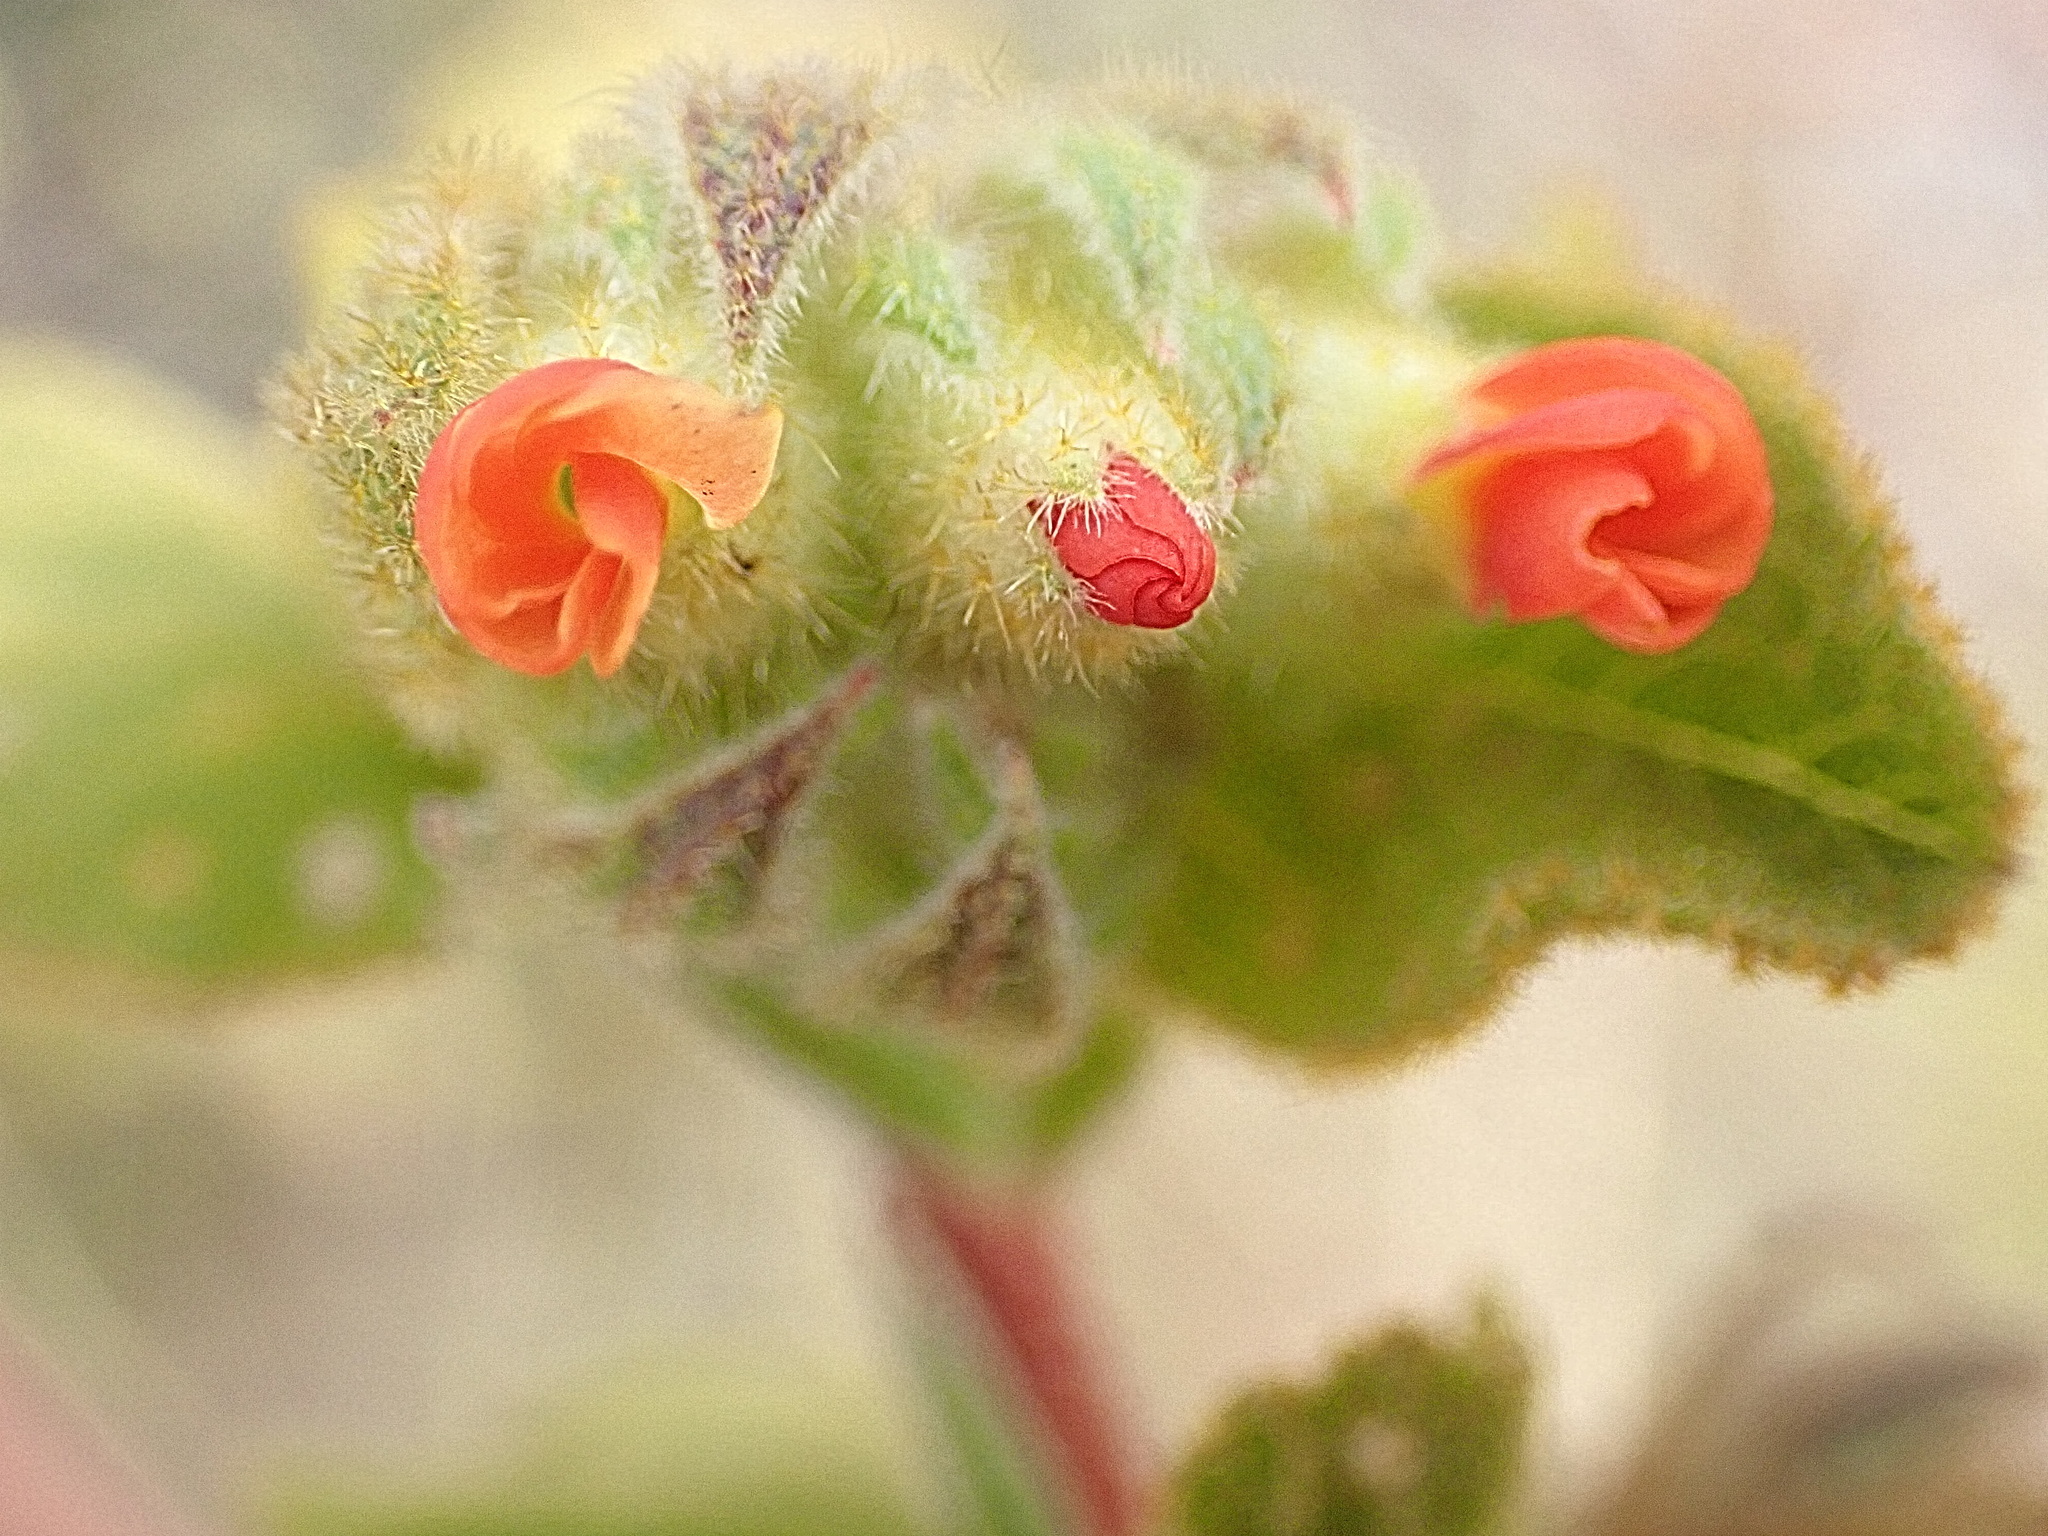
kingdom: Plantae
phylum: Tracheophyta
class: Magnoliopsida
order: Malvales
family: Malvaceae
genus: Hermannia
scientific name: Hermannia salviifolia
